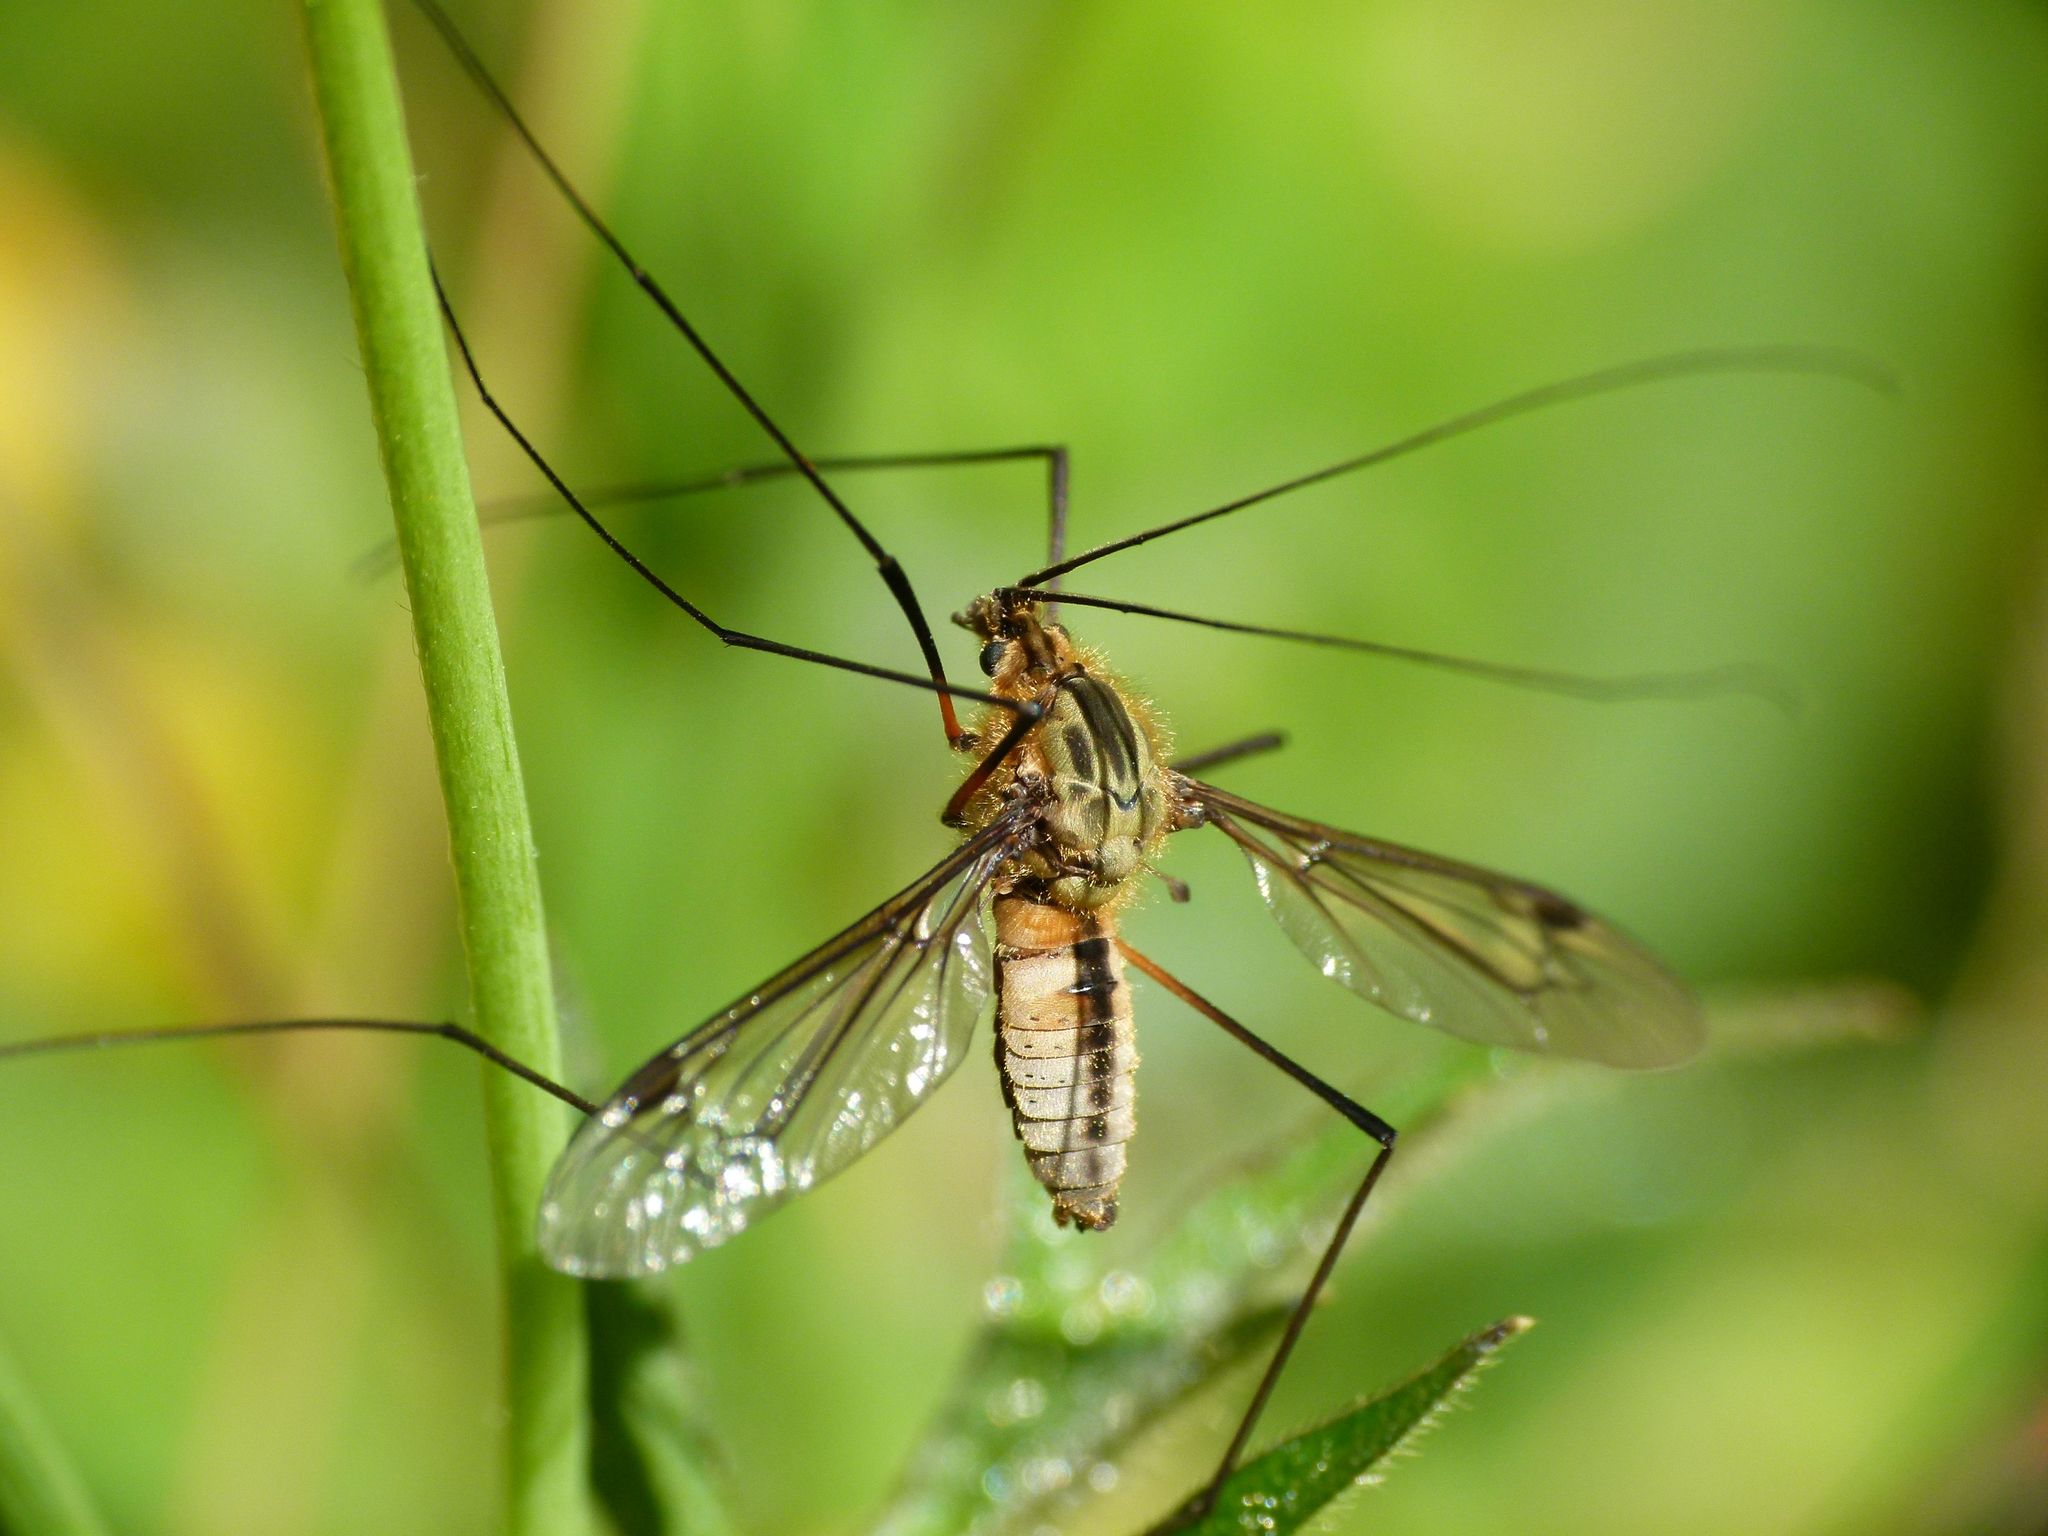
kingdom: Animalia
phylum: Arthropoda
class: Insecta
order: Diptera
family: Tipulidae
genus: Leptotarsus
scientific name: Leptotarsus vulpinus
